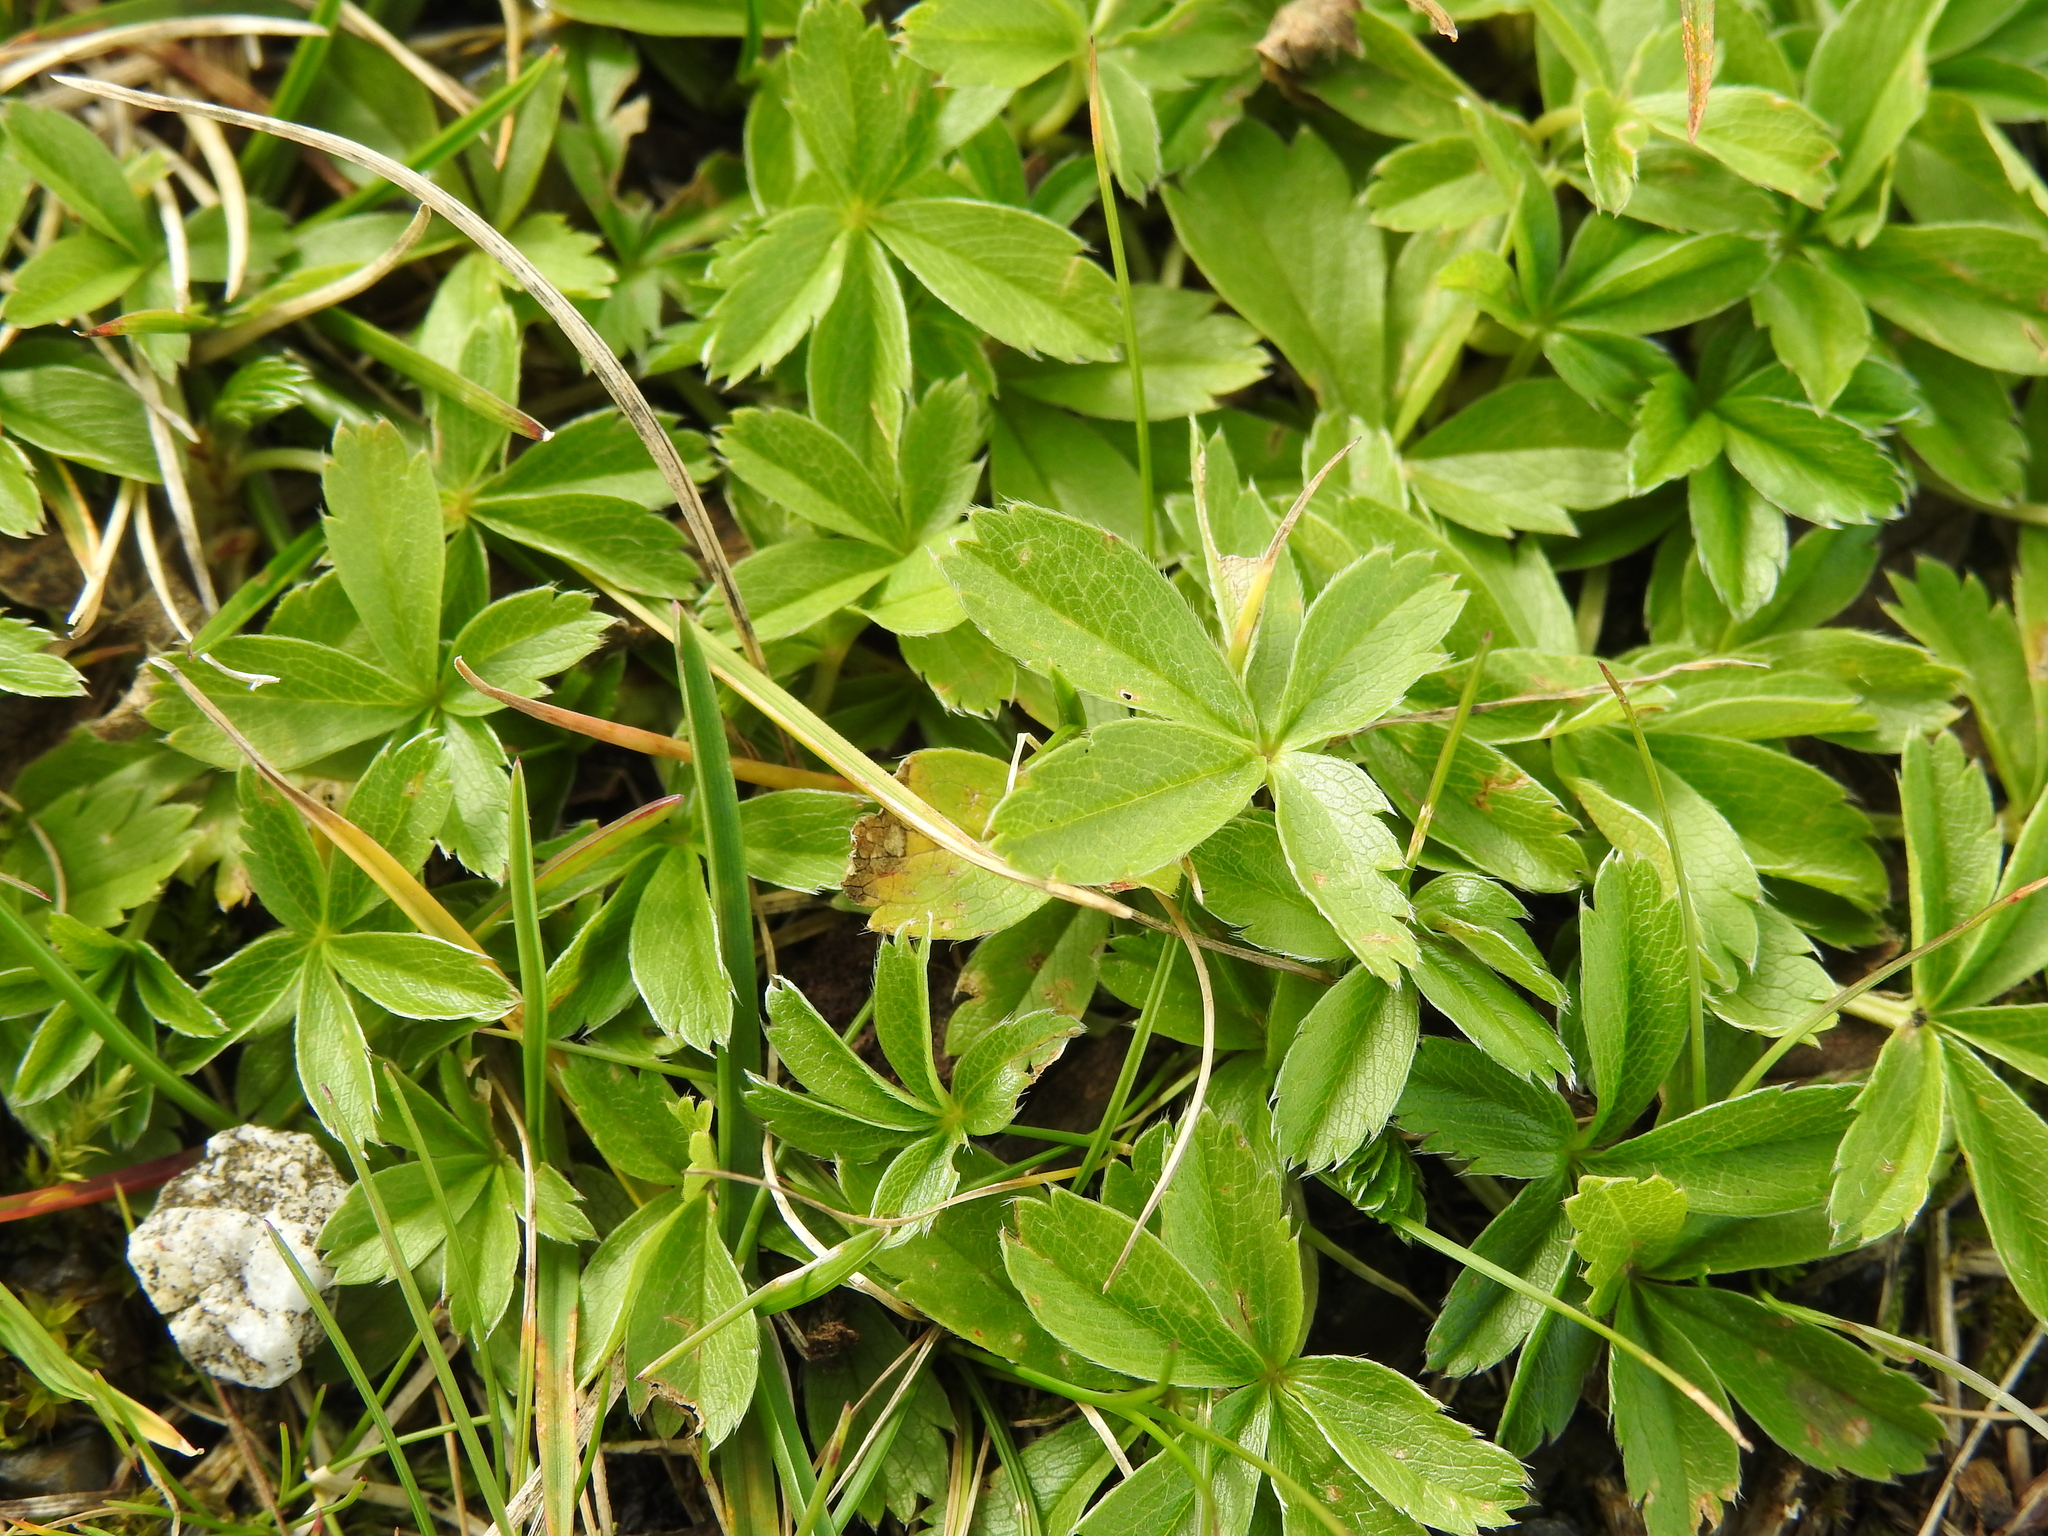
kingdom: Plantae
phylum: Tracheophyta
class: Magnoliopsida
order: Rosales
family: Rosaceae
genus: Potentilla
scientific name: Potentilla aurea
